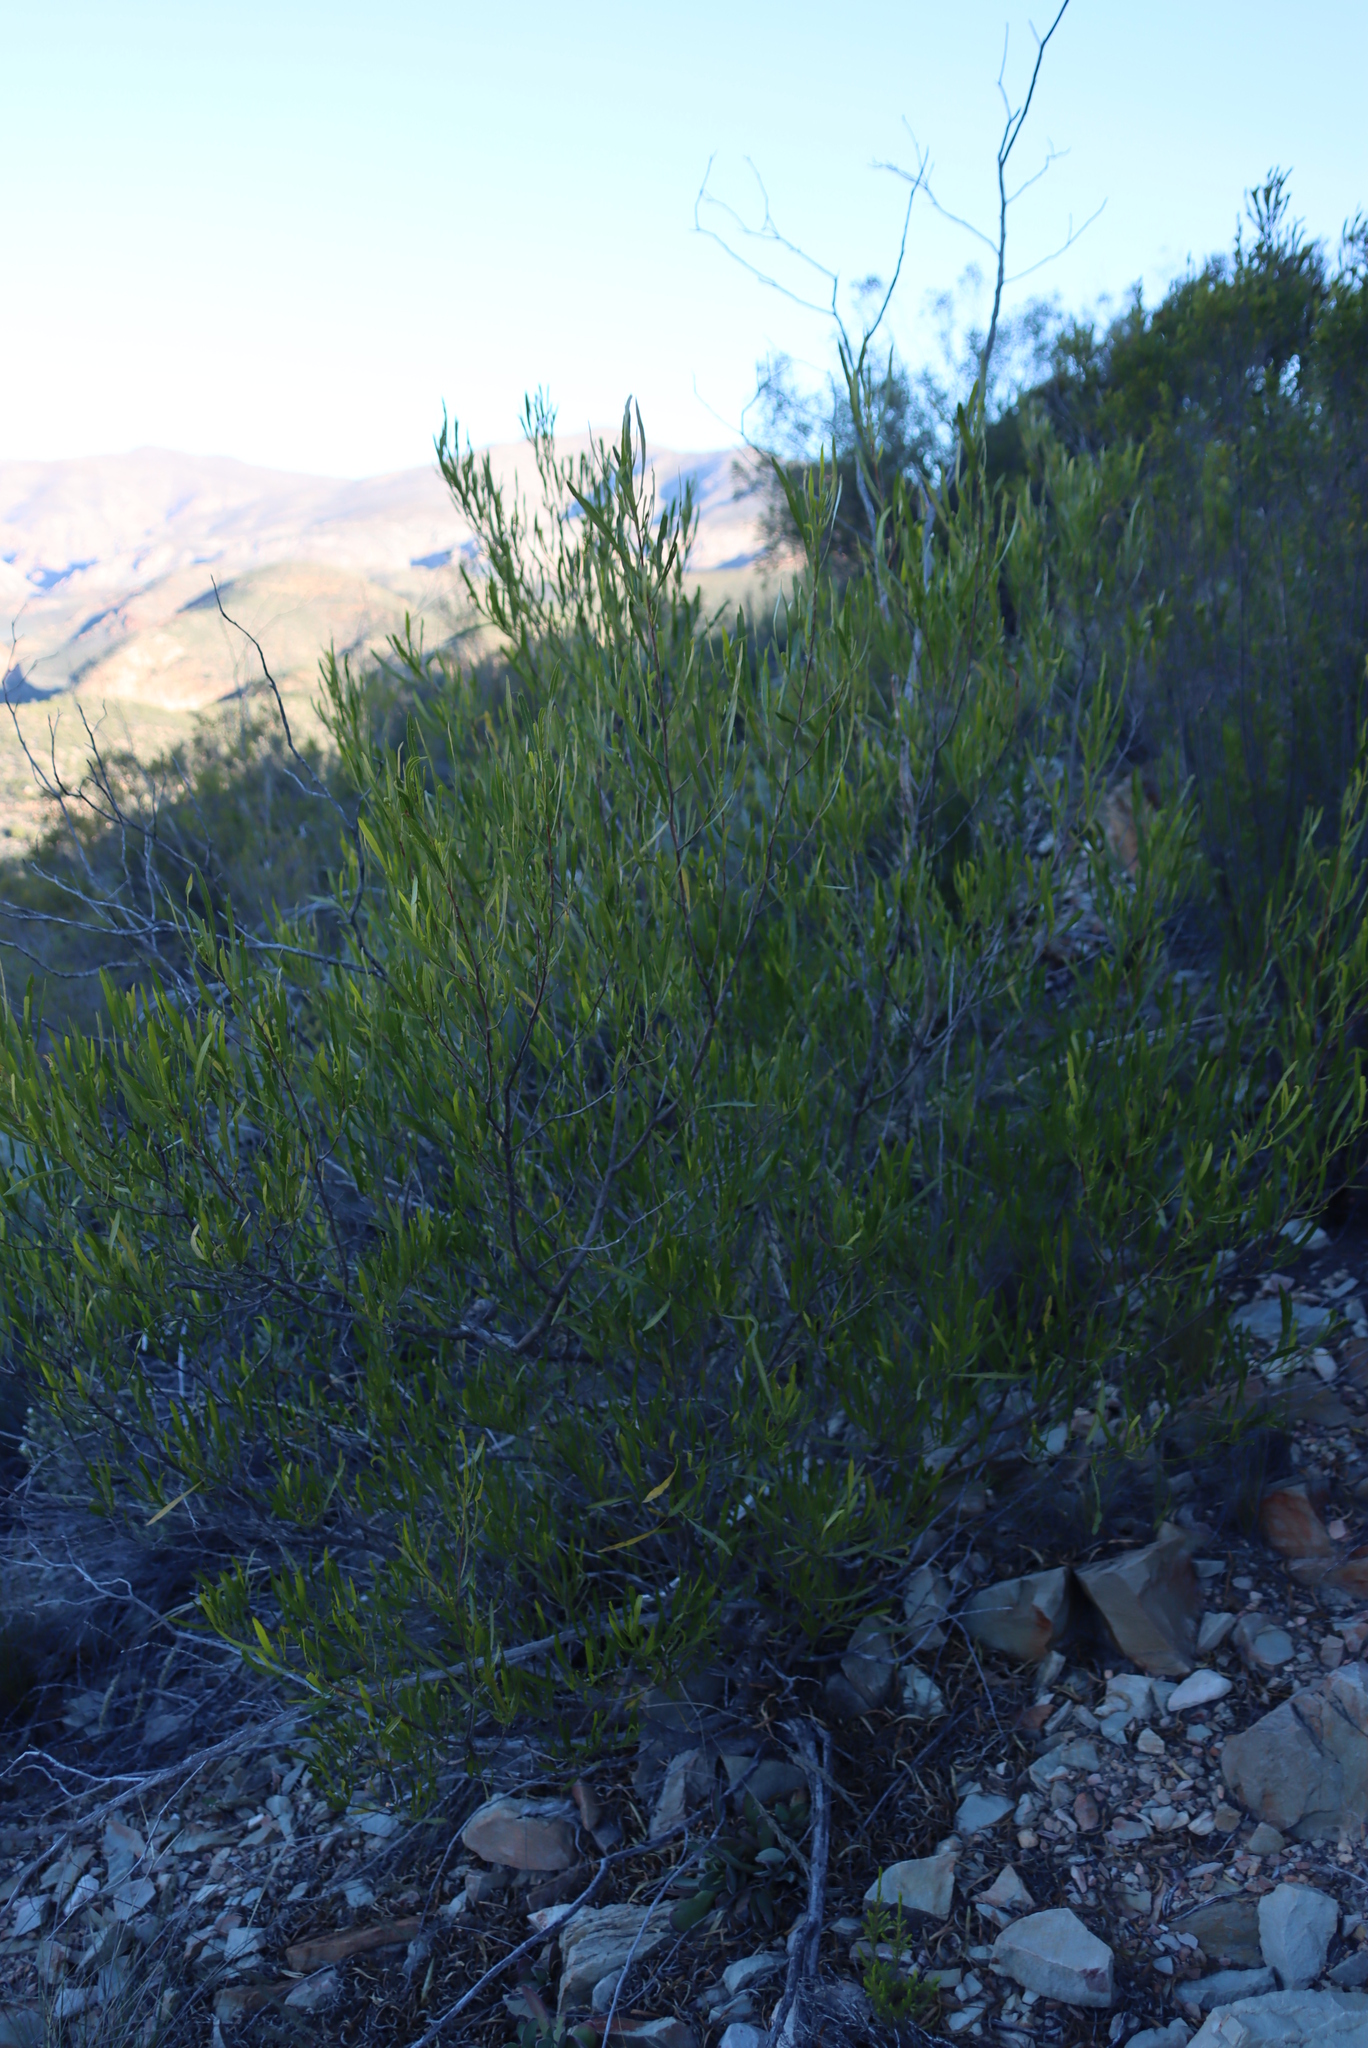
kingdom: Plantae
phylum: Tracheophyta
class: Magnoliopsida
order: Sapindales
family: Sapindaceae
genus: Dodonaea
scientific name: Dodonaea viscosa
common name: Hopbush
